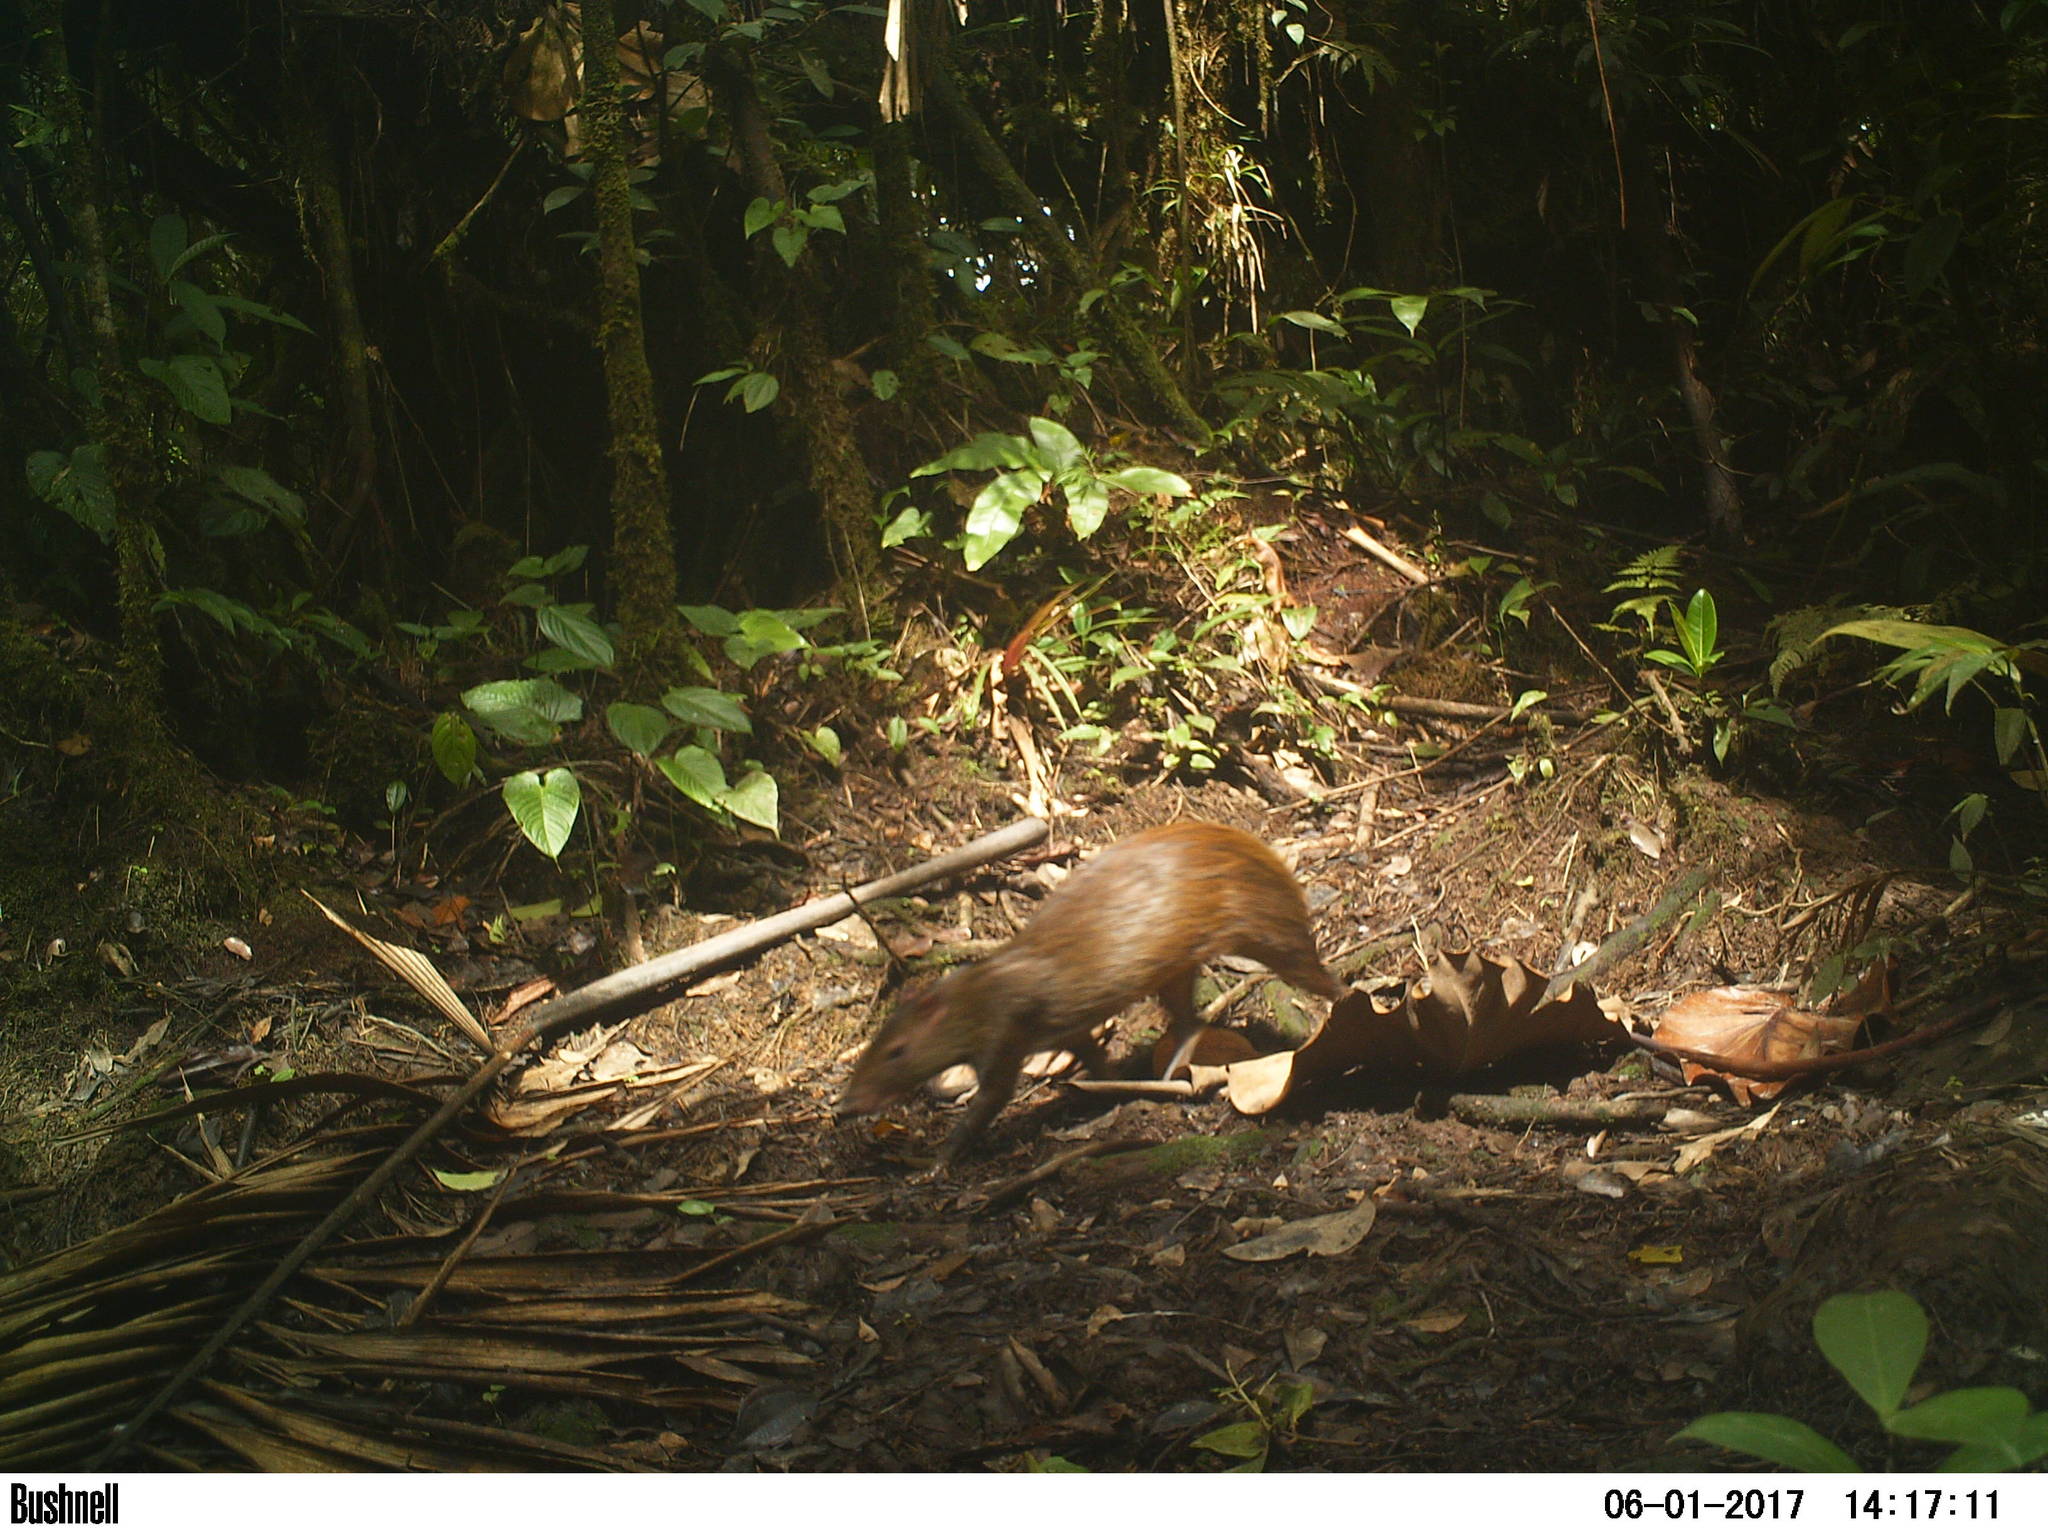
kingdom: Animalia
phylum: Chordata
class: Mammalia
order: Rodentia
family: Dasyproctidae
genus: Dasyprocta
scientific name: Dasyprocta punctata
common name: Central american agouti
